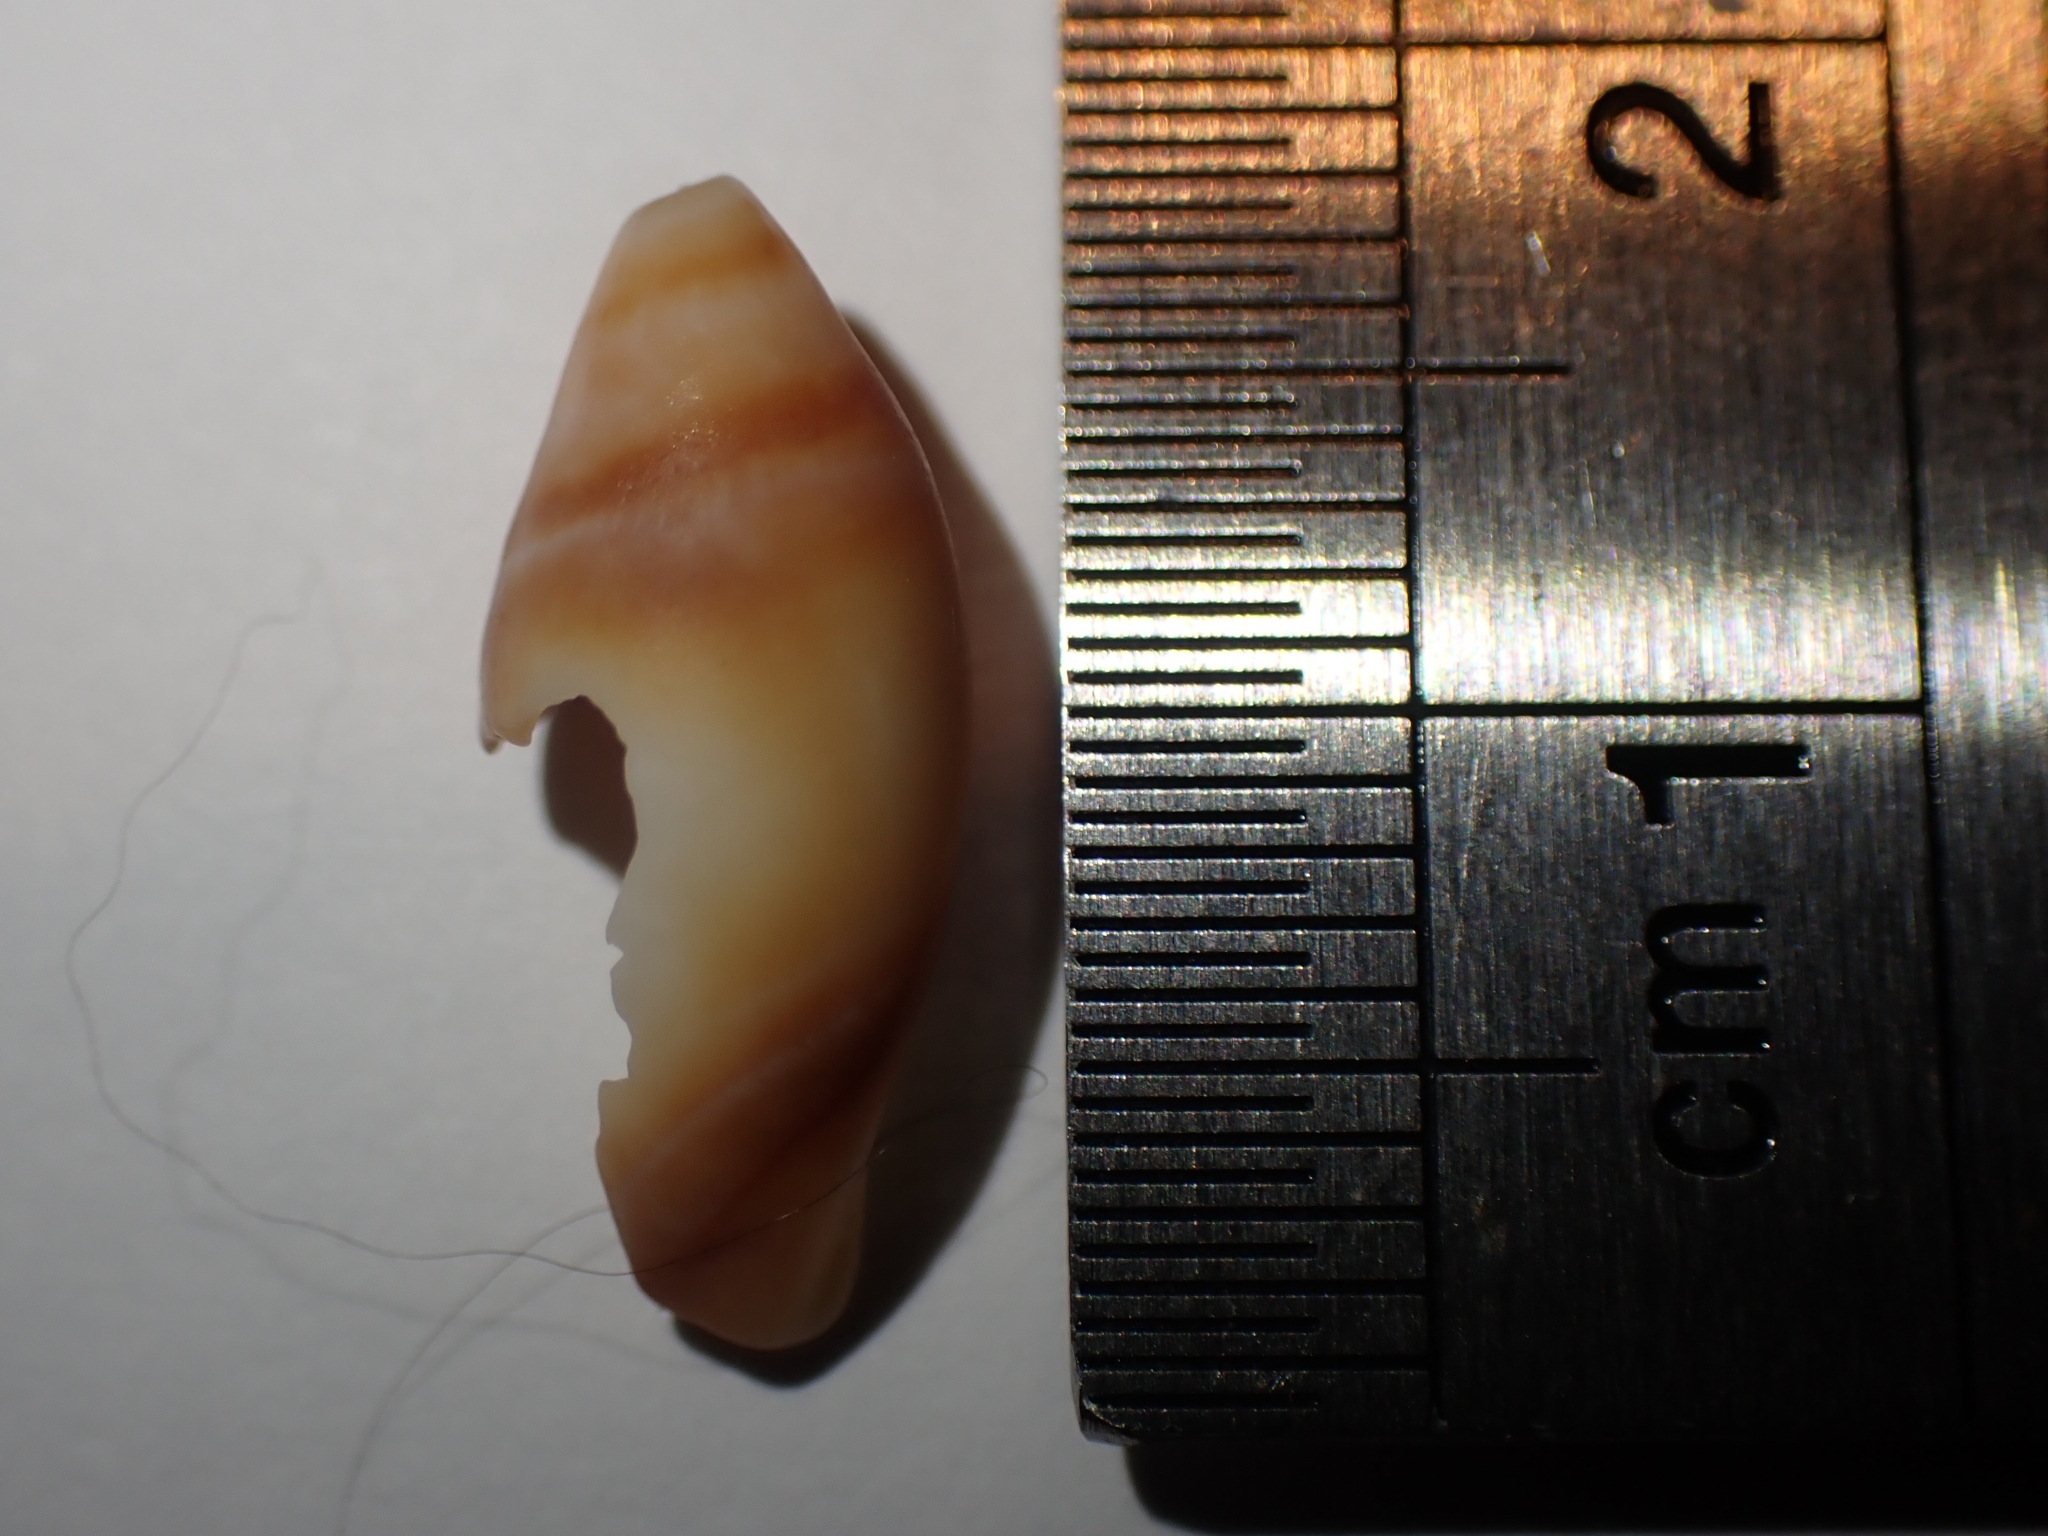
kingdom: Animalia
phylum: Mollusca
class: Gastropoda
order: Neogastropoda
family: Ancillariidae
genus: Amalda
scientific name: Amalda australis
